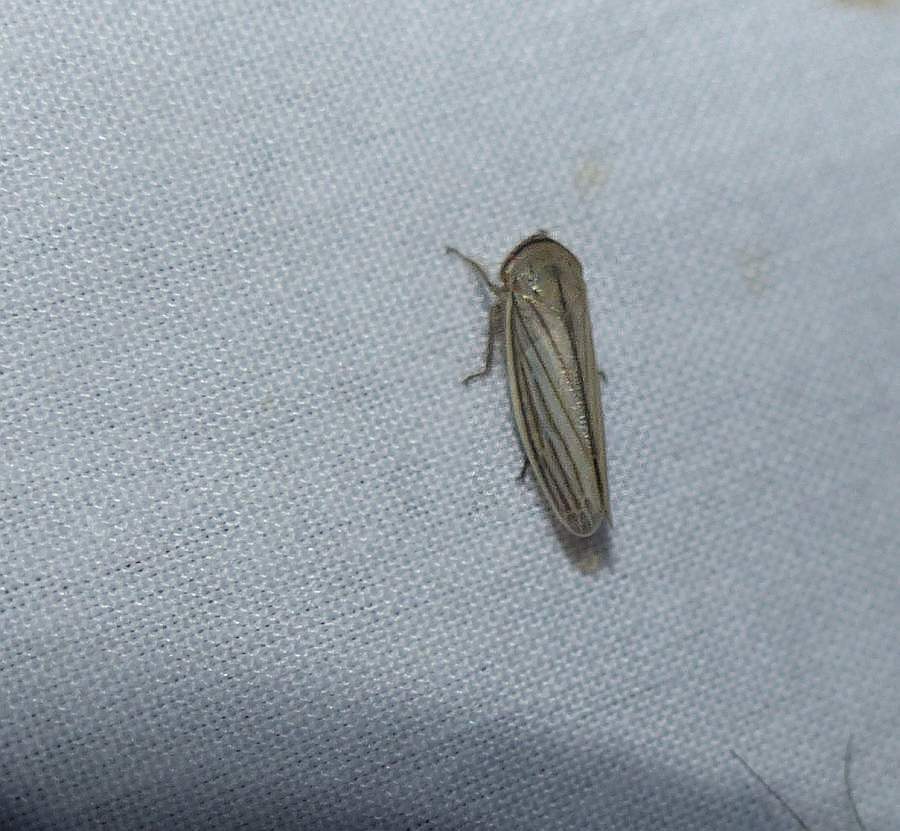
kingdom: Animalia
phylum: Arthropoda
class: Insecta
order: Hemiptera
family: Cicadellidae
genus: Athysanus
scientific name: Athysanus argentarius
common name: Silver leafhopper
